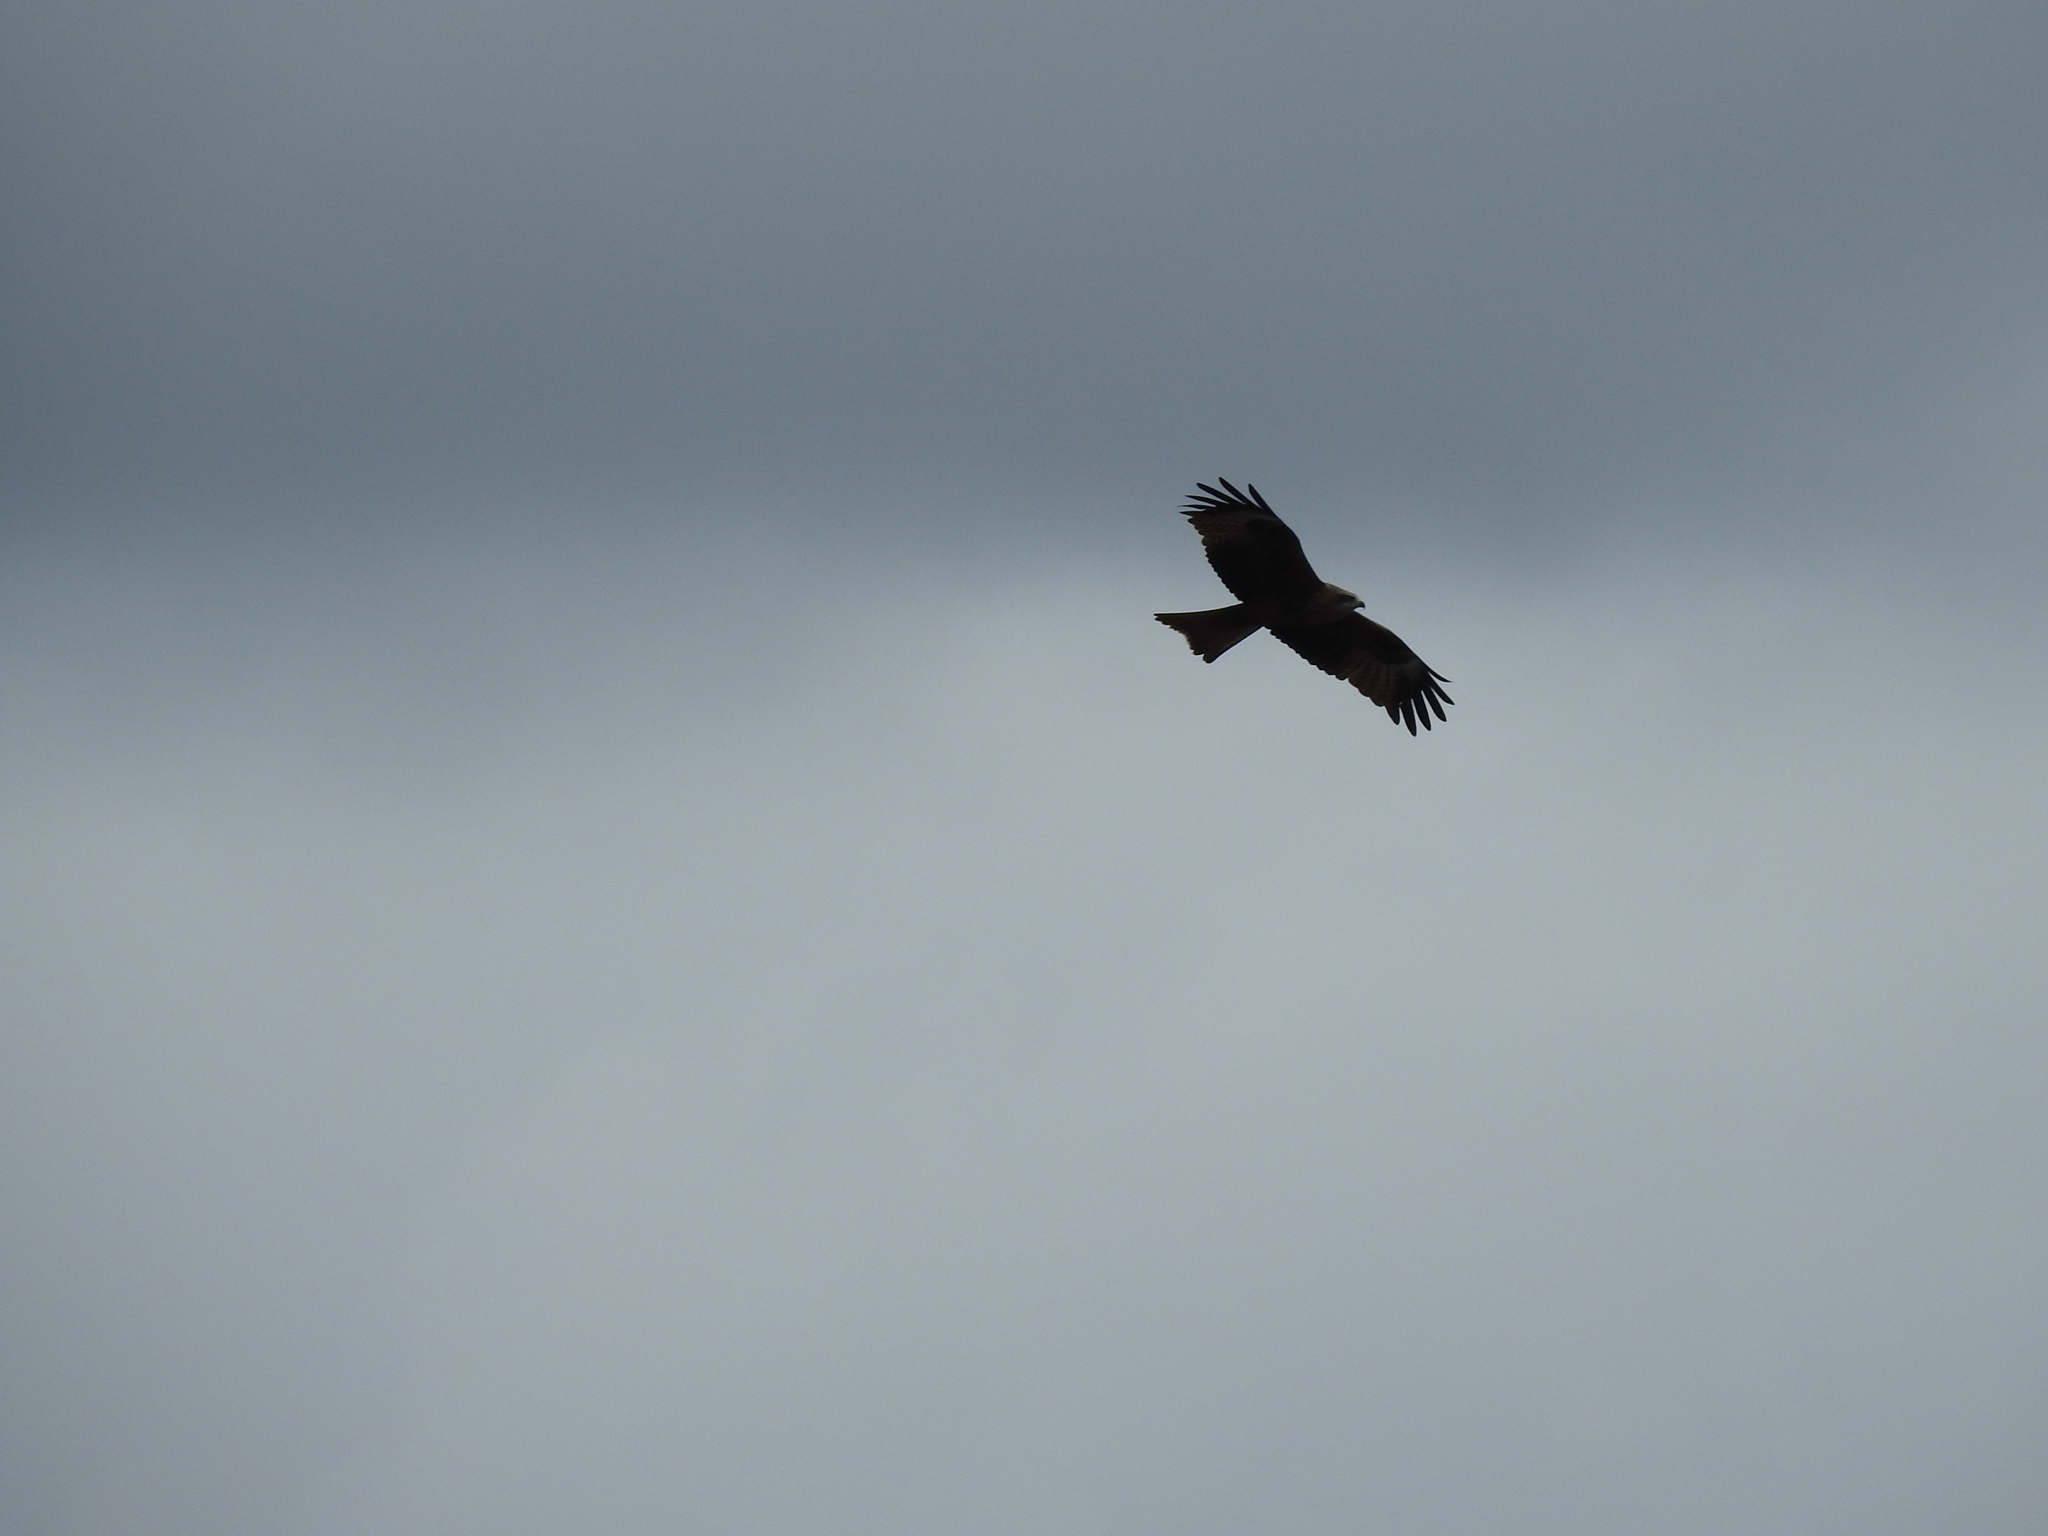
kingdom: Animalia
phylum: Chordata
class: Aves
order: Accipitriformes
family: Accipitridae
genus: Milvus
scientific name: Milvus migrans
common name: Black kite
